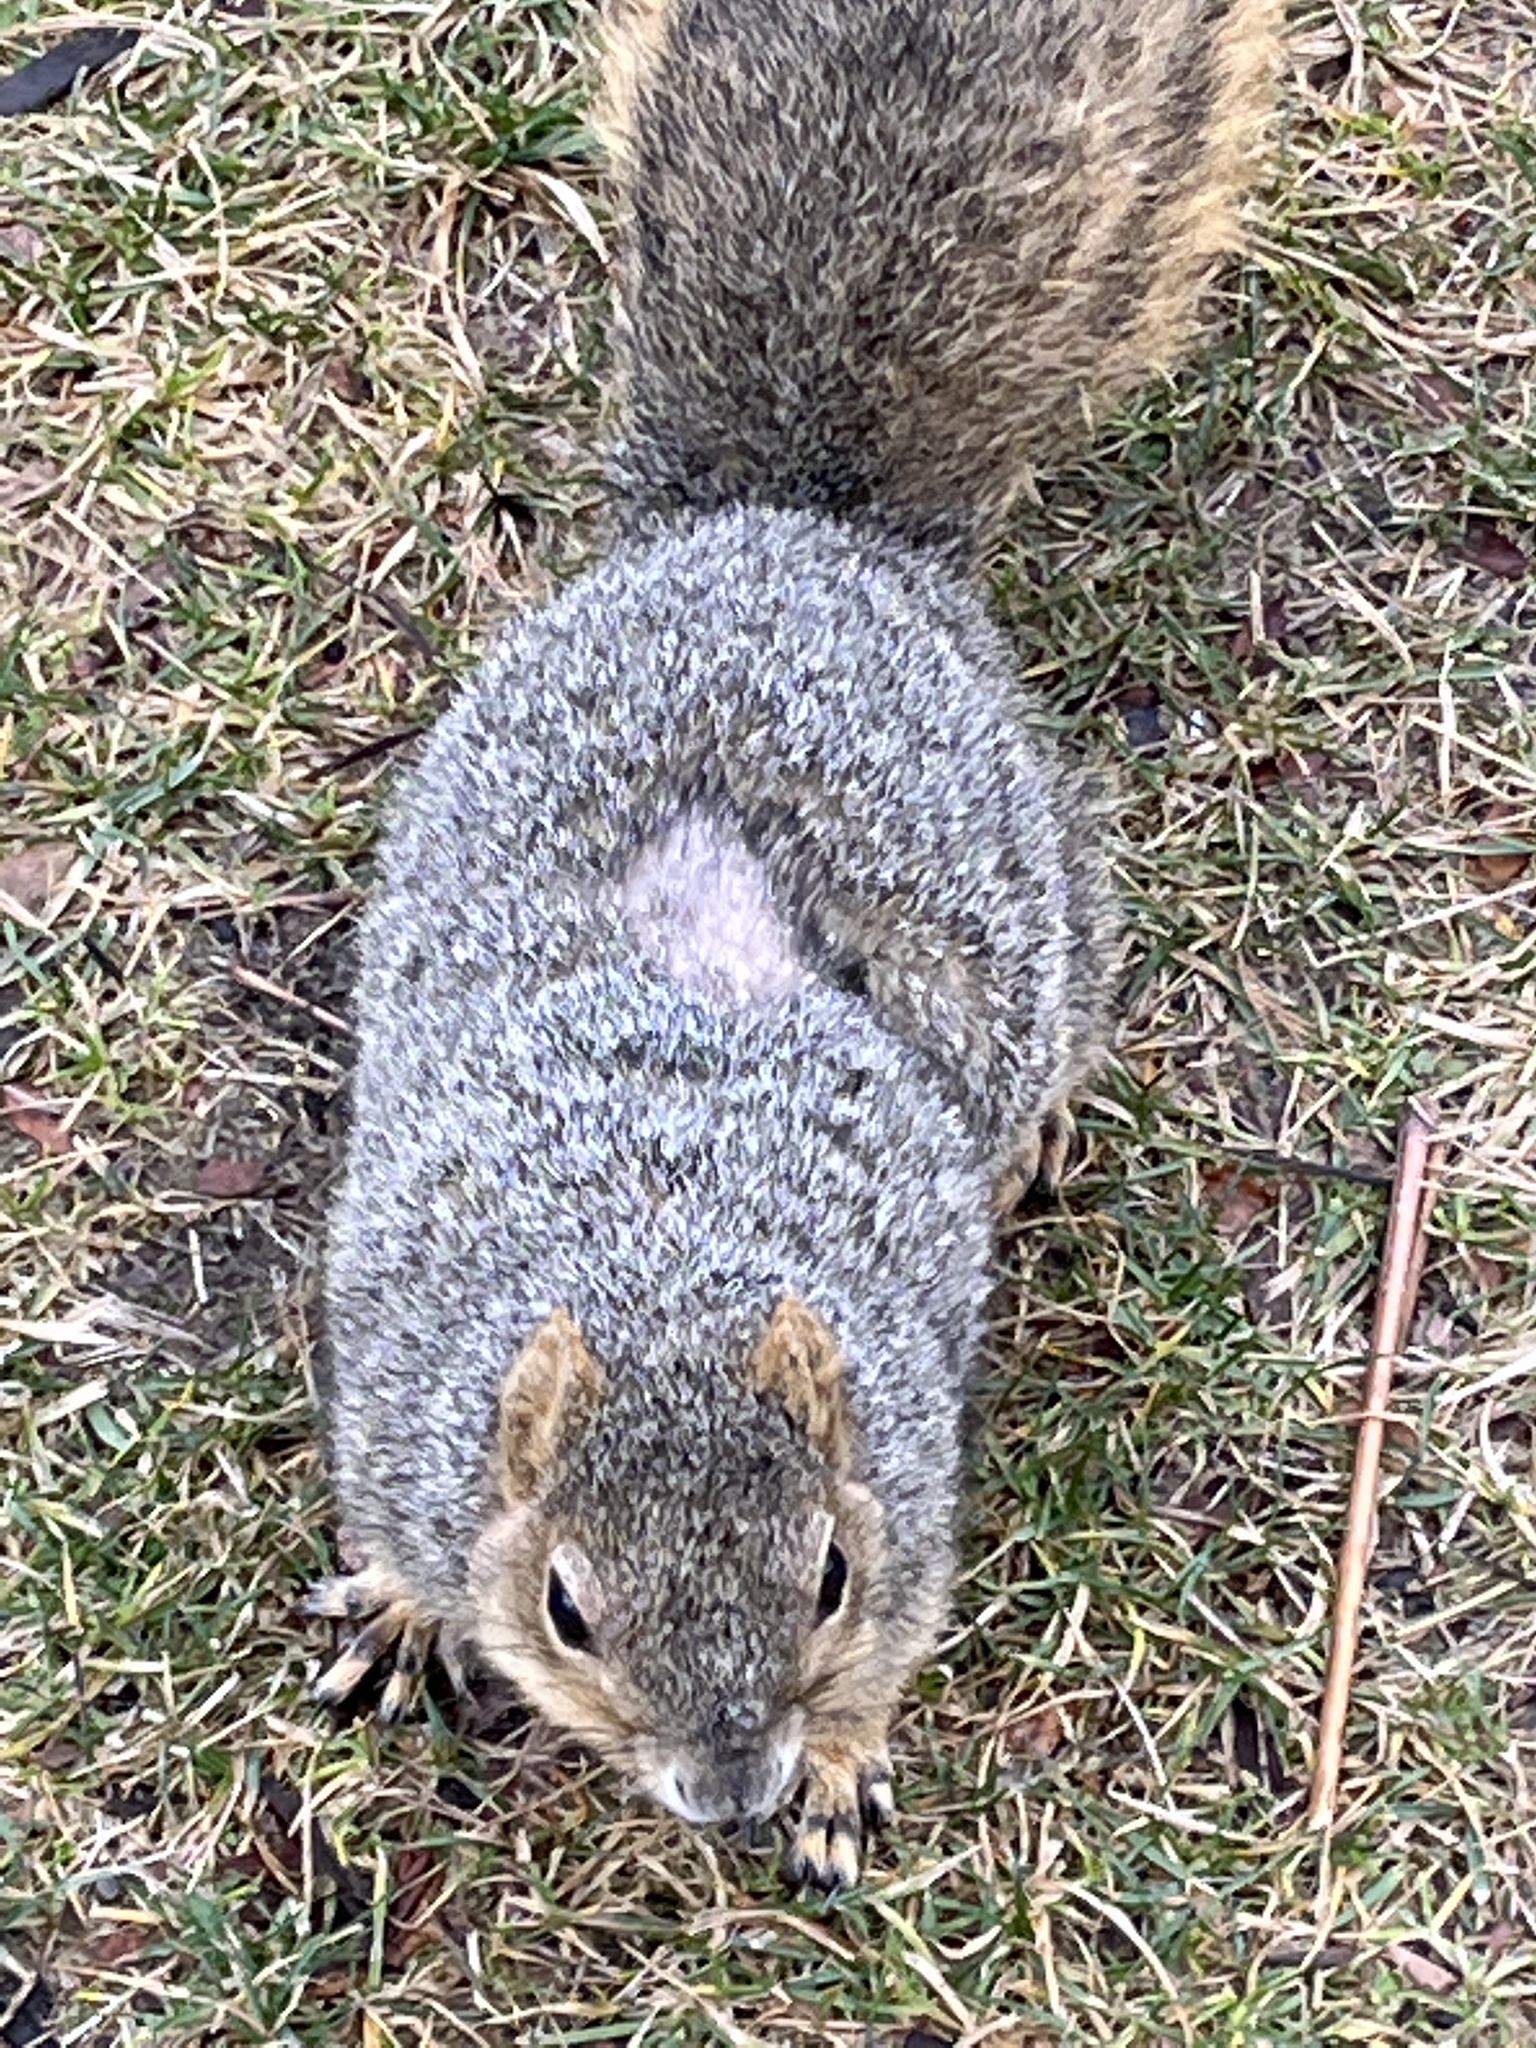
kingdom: Animalia
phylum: Chordata
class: Mammalia
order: Rodentia
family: Sciuridae
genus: Sciurus
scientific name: Sciurus niger
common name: Fox squirrel
